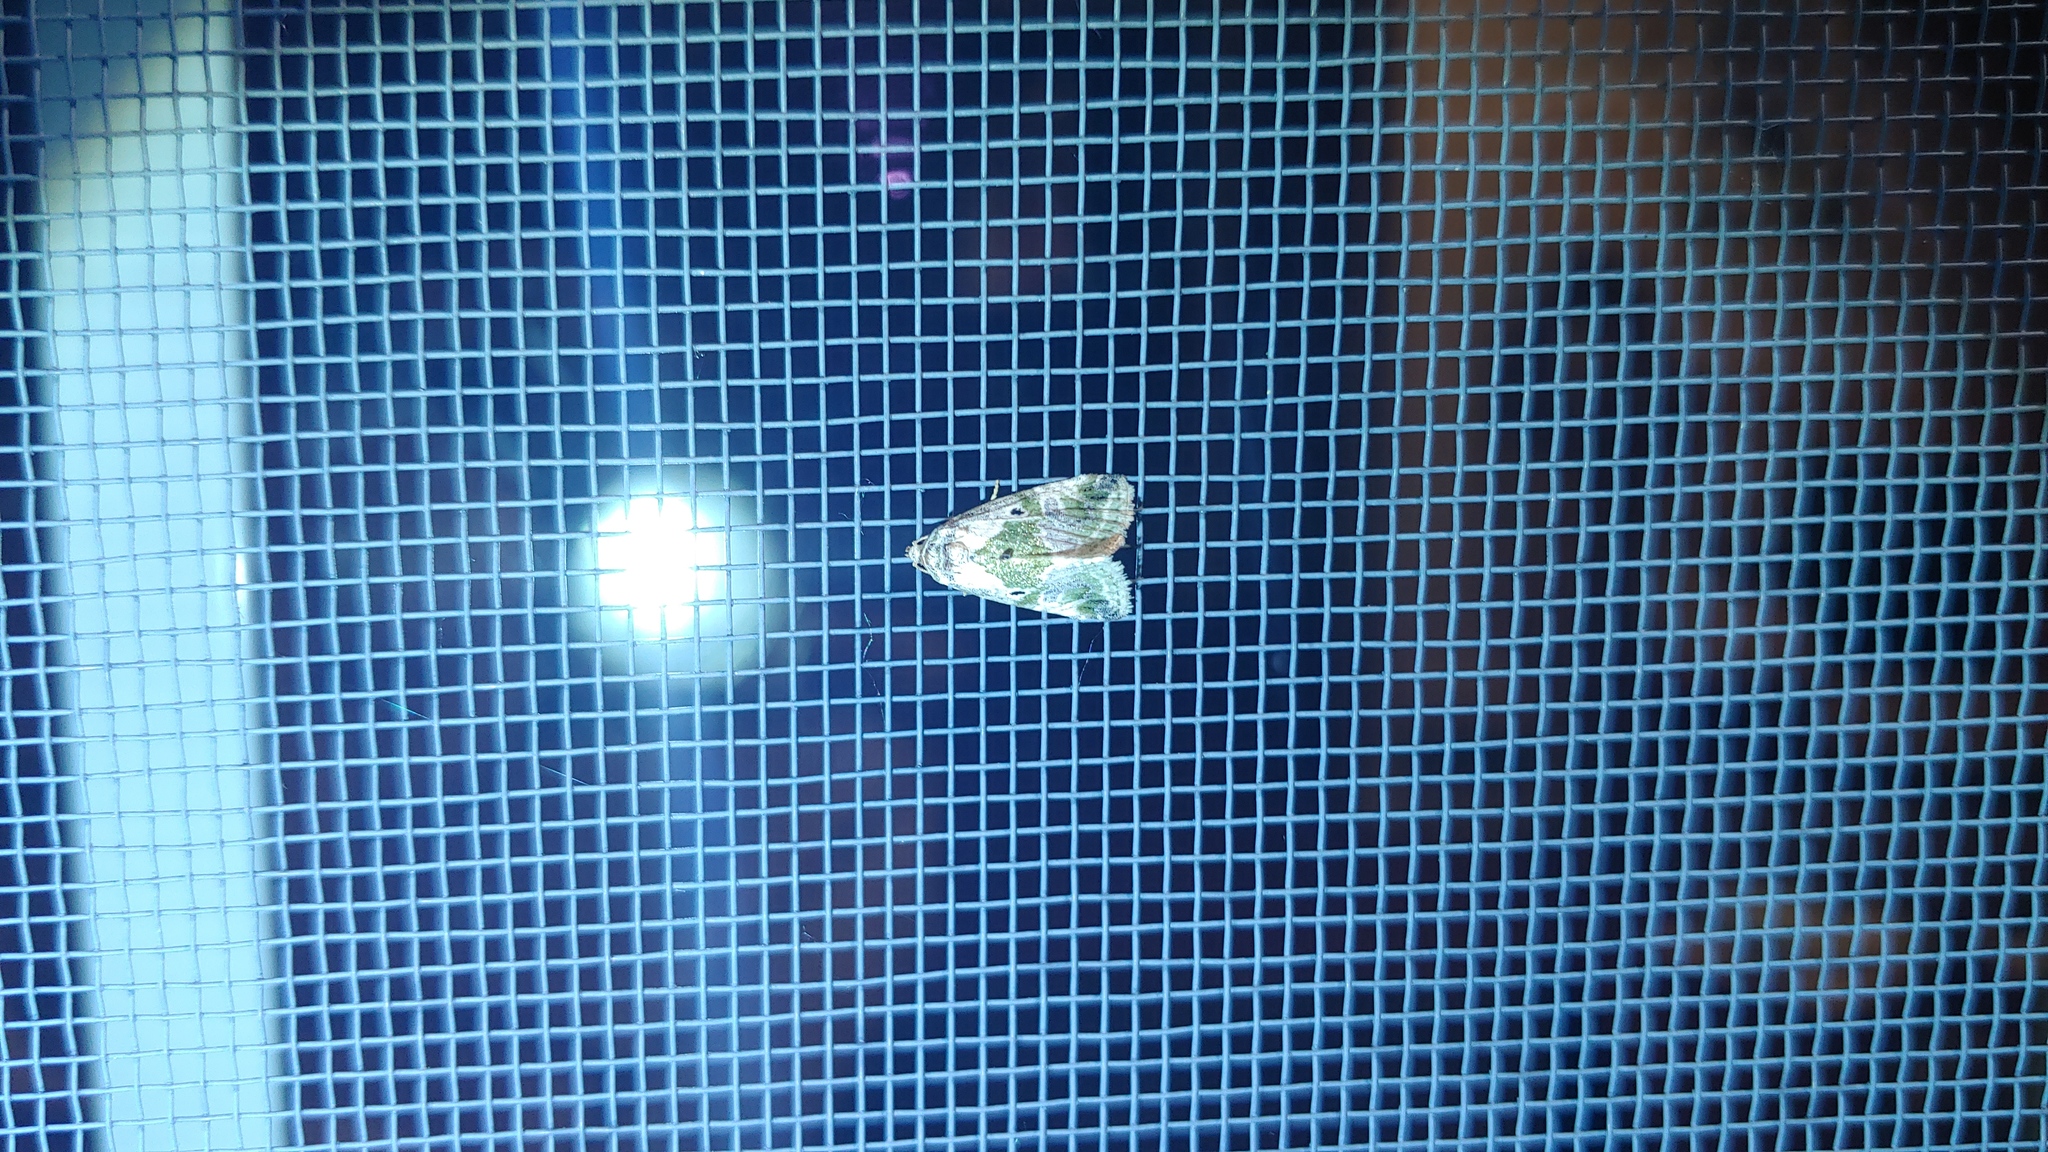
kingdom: Animalia
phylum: Arthropoda
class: Insecta
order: Lepidoptera
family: Noctuidae
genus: Maliattha
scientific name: Maliattha synochitis
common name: Black-dotted glyph
